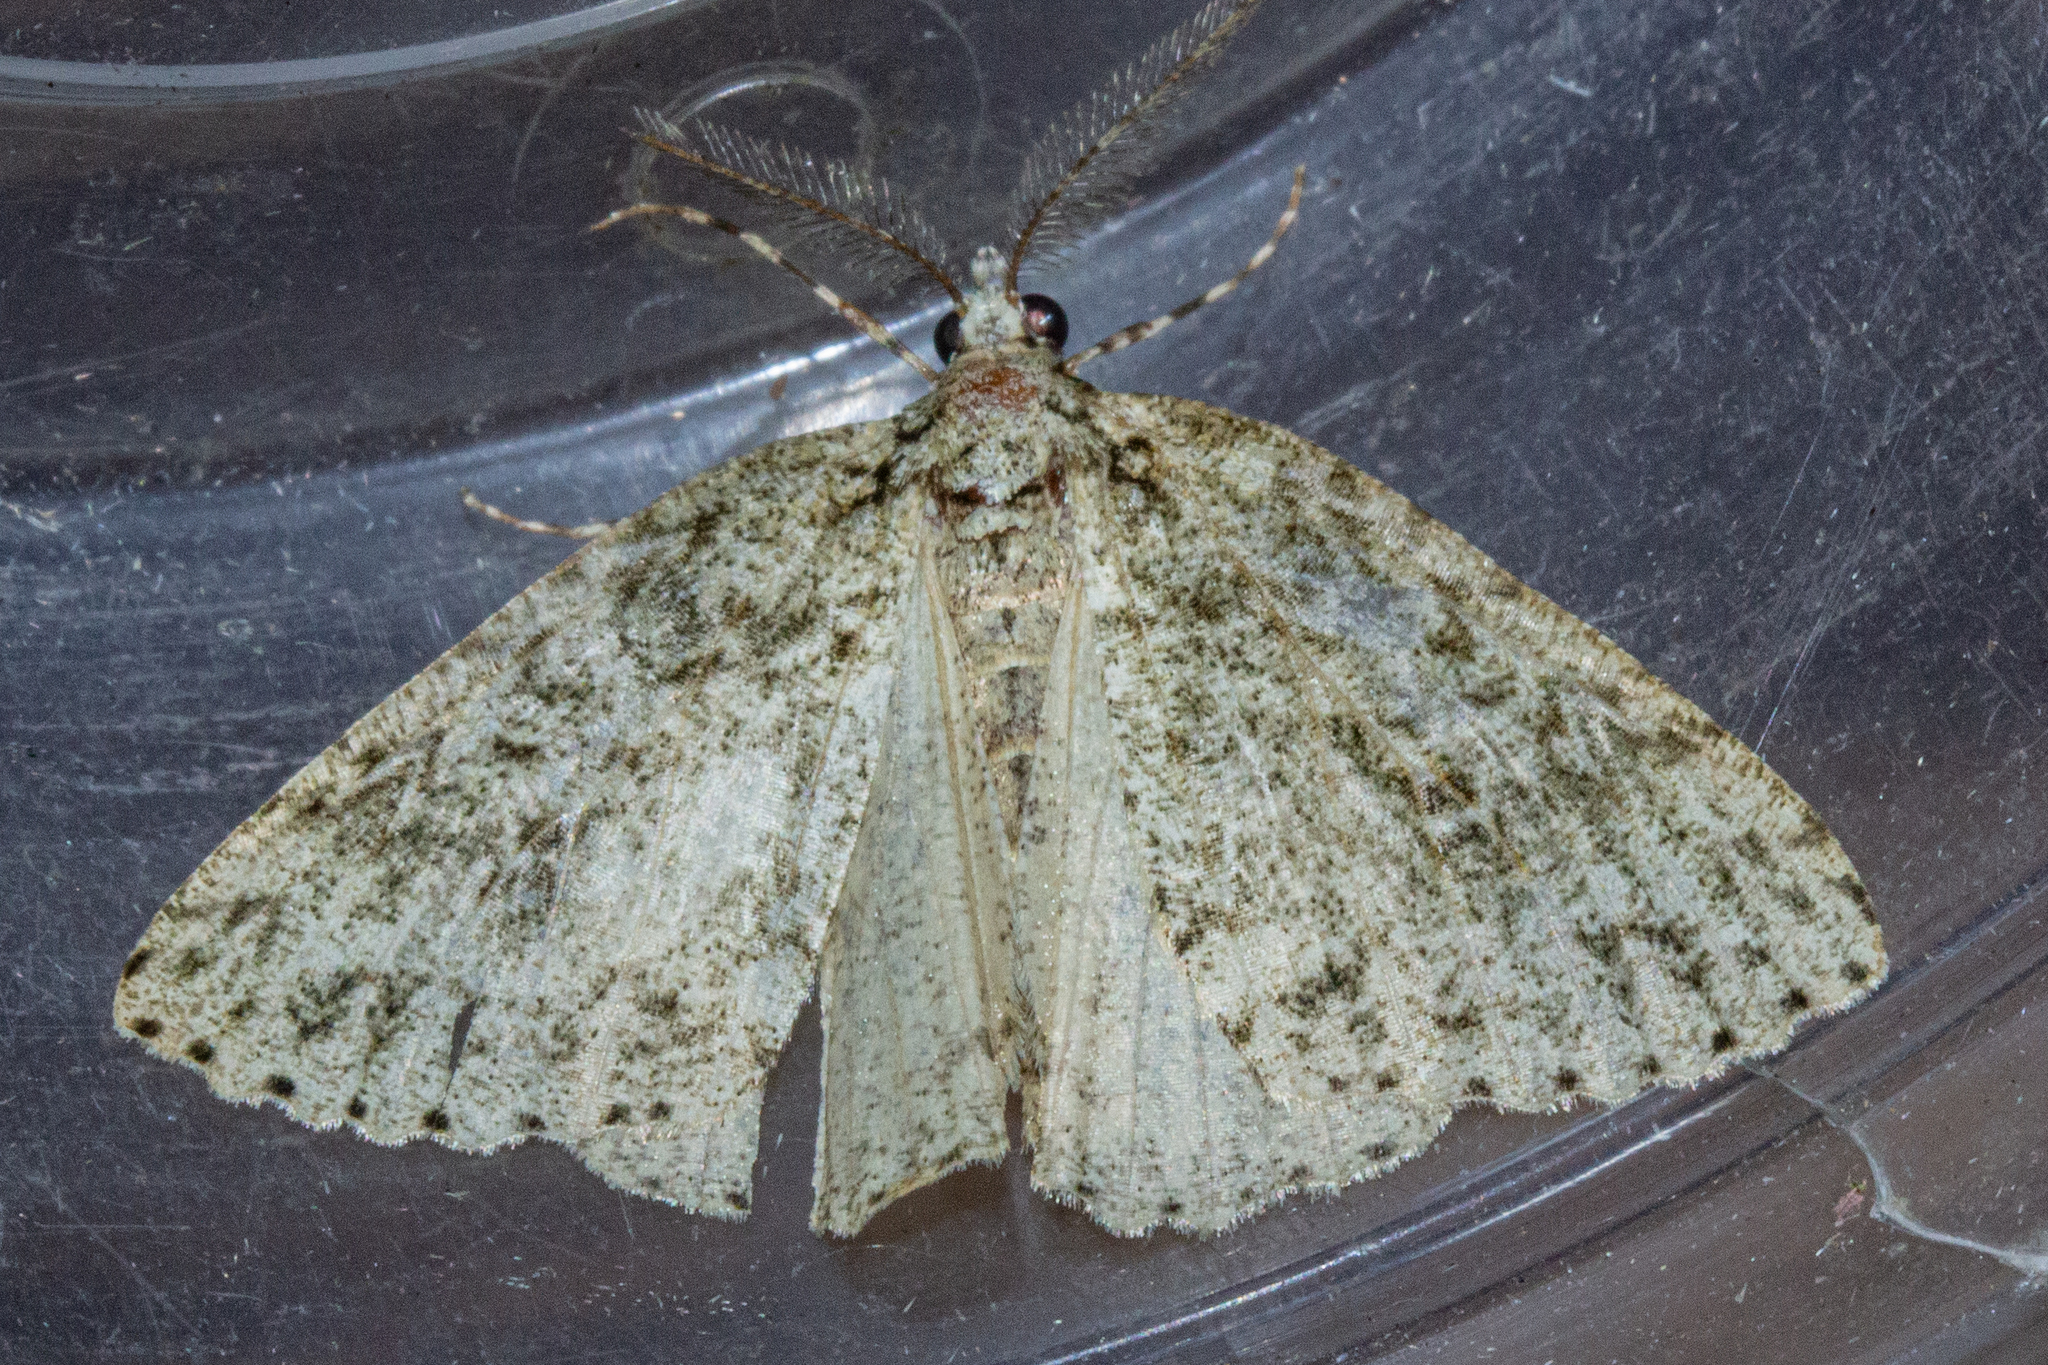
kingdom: Animalia
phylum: Arthropoda
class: Insecta
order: Lepidoptera
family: Geometridae
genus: Pseudocoremia
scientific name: Pseudocoremia rudisata
